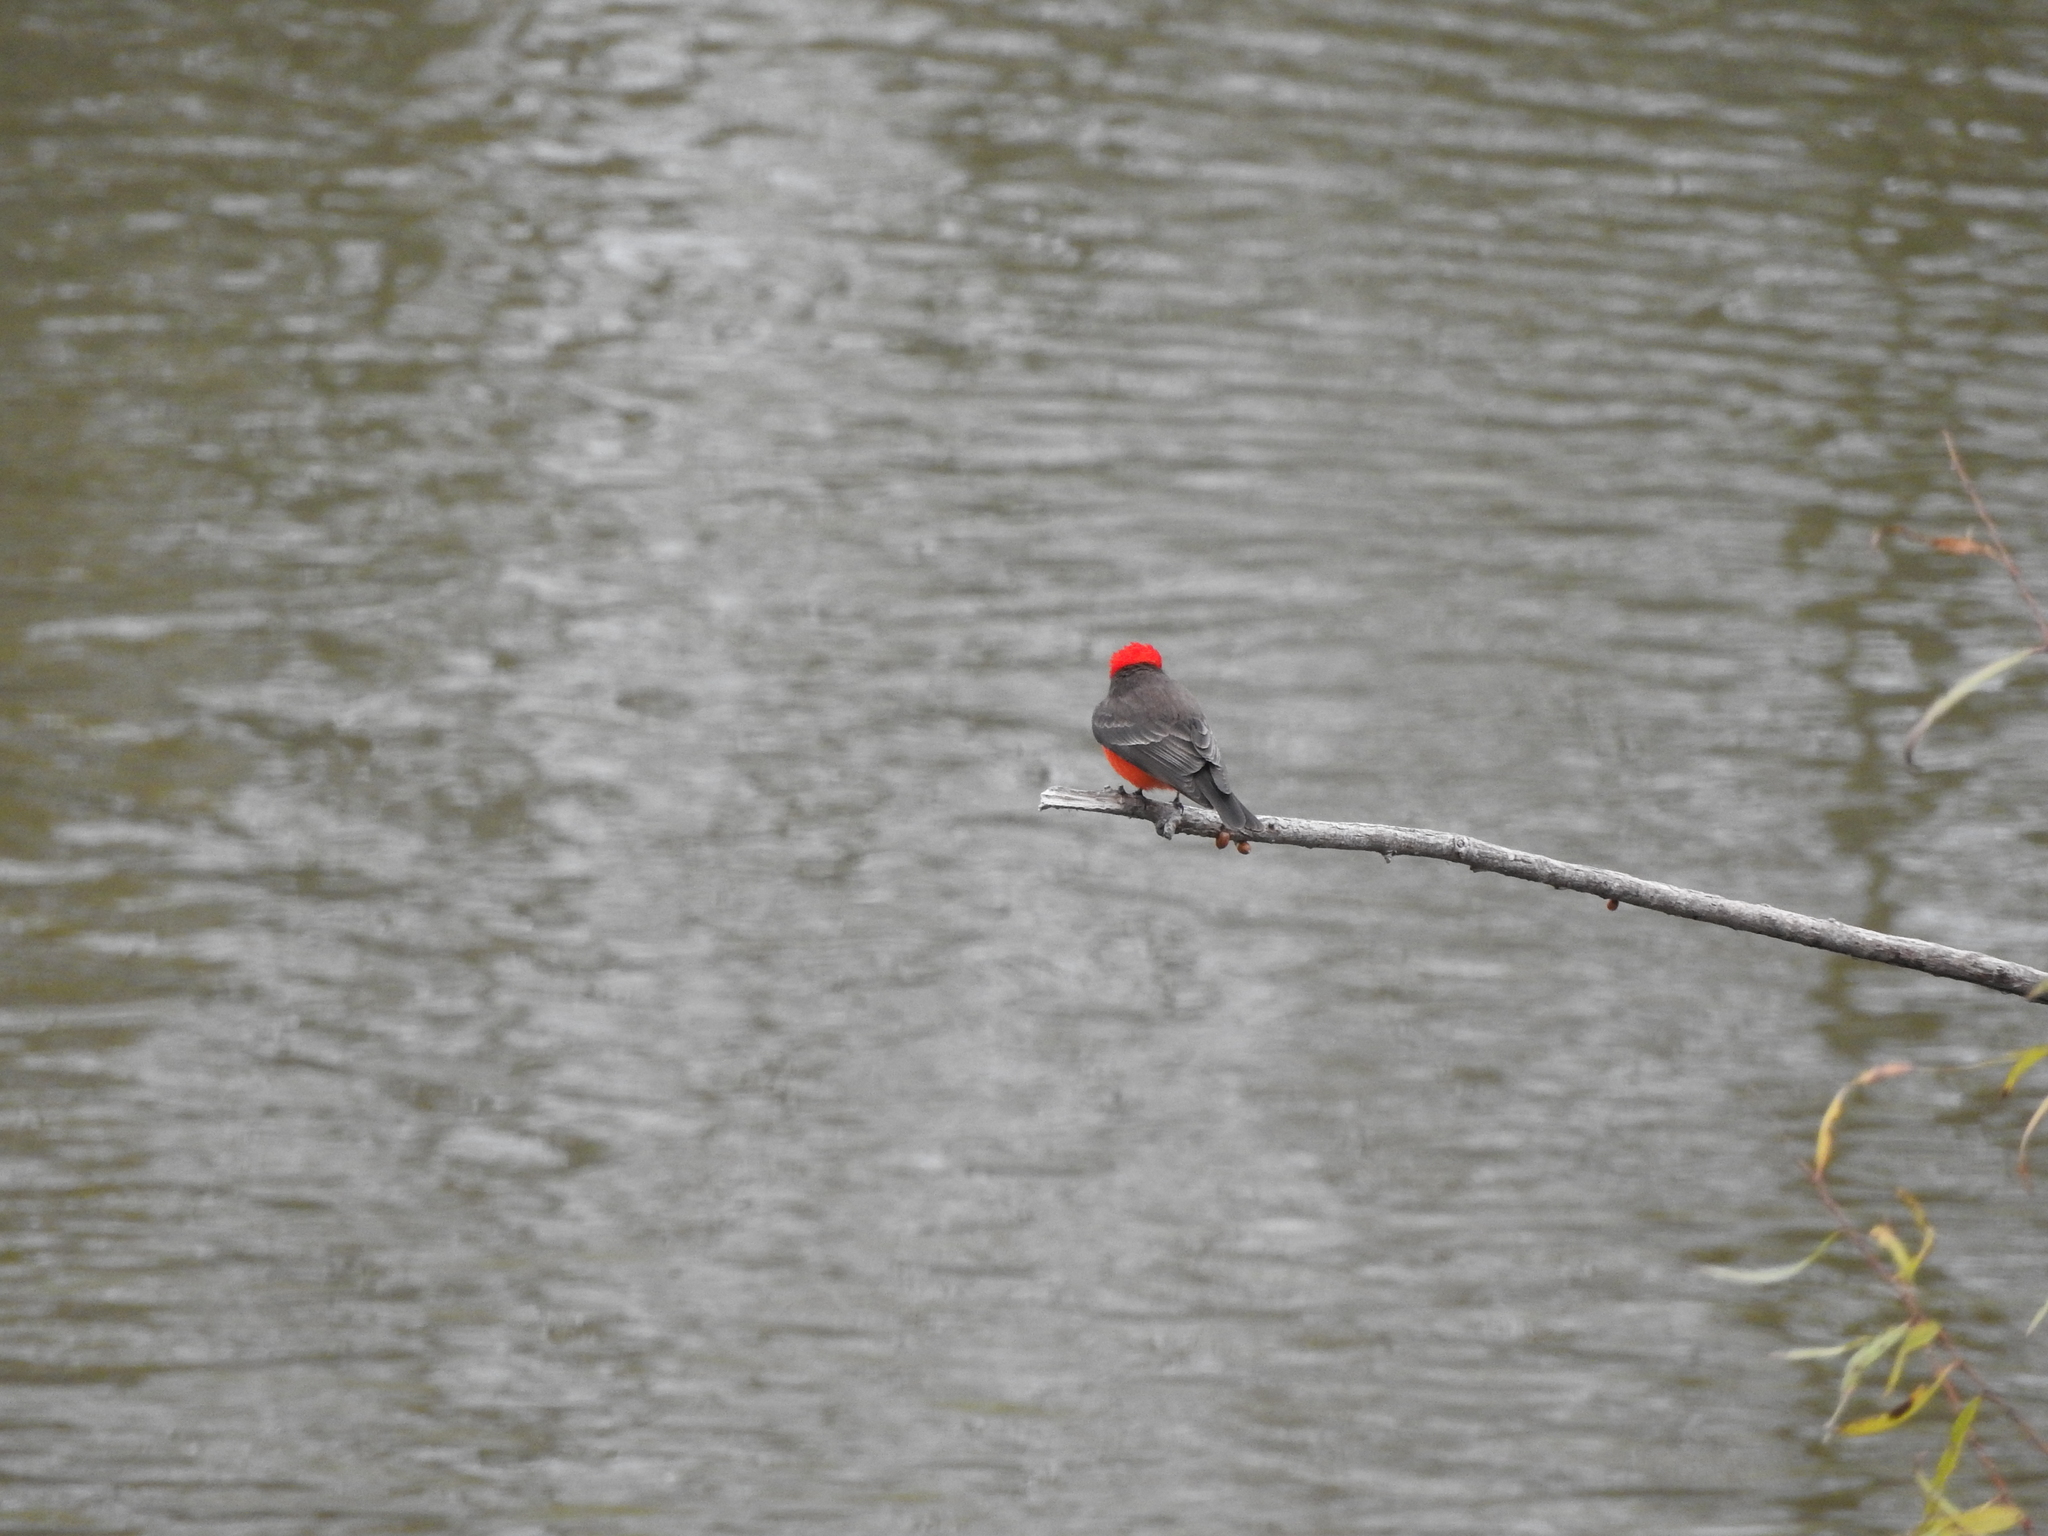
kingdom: Animalia
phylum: Chordata
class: Aves
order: Passeriformes
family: Tyrannidae
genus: Pyrocephalus
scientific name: Pyrocephalus rubinus
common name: Vermilion flycatcher
